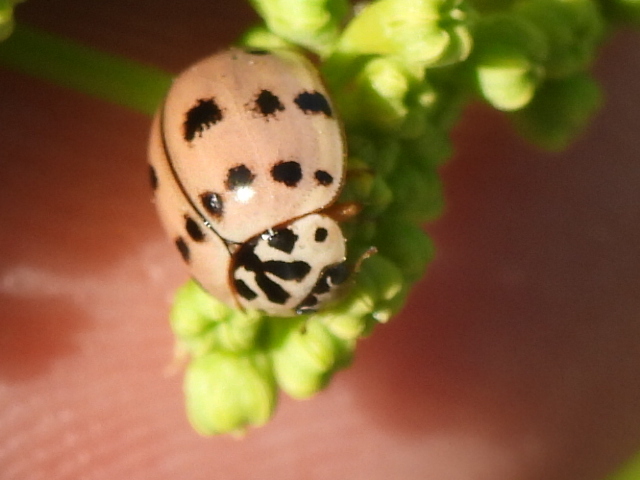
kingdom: Animalia
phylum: Arthropoda
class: Insecta
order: Coleoptera
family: Coccinellidae
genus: Olla
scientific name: Olla v-nigrum
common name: Ashy gray lady beetle
